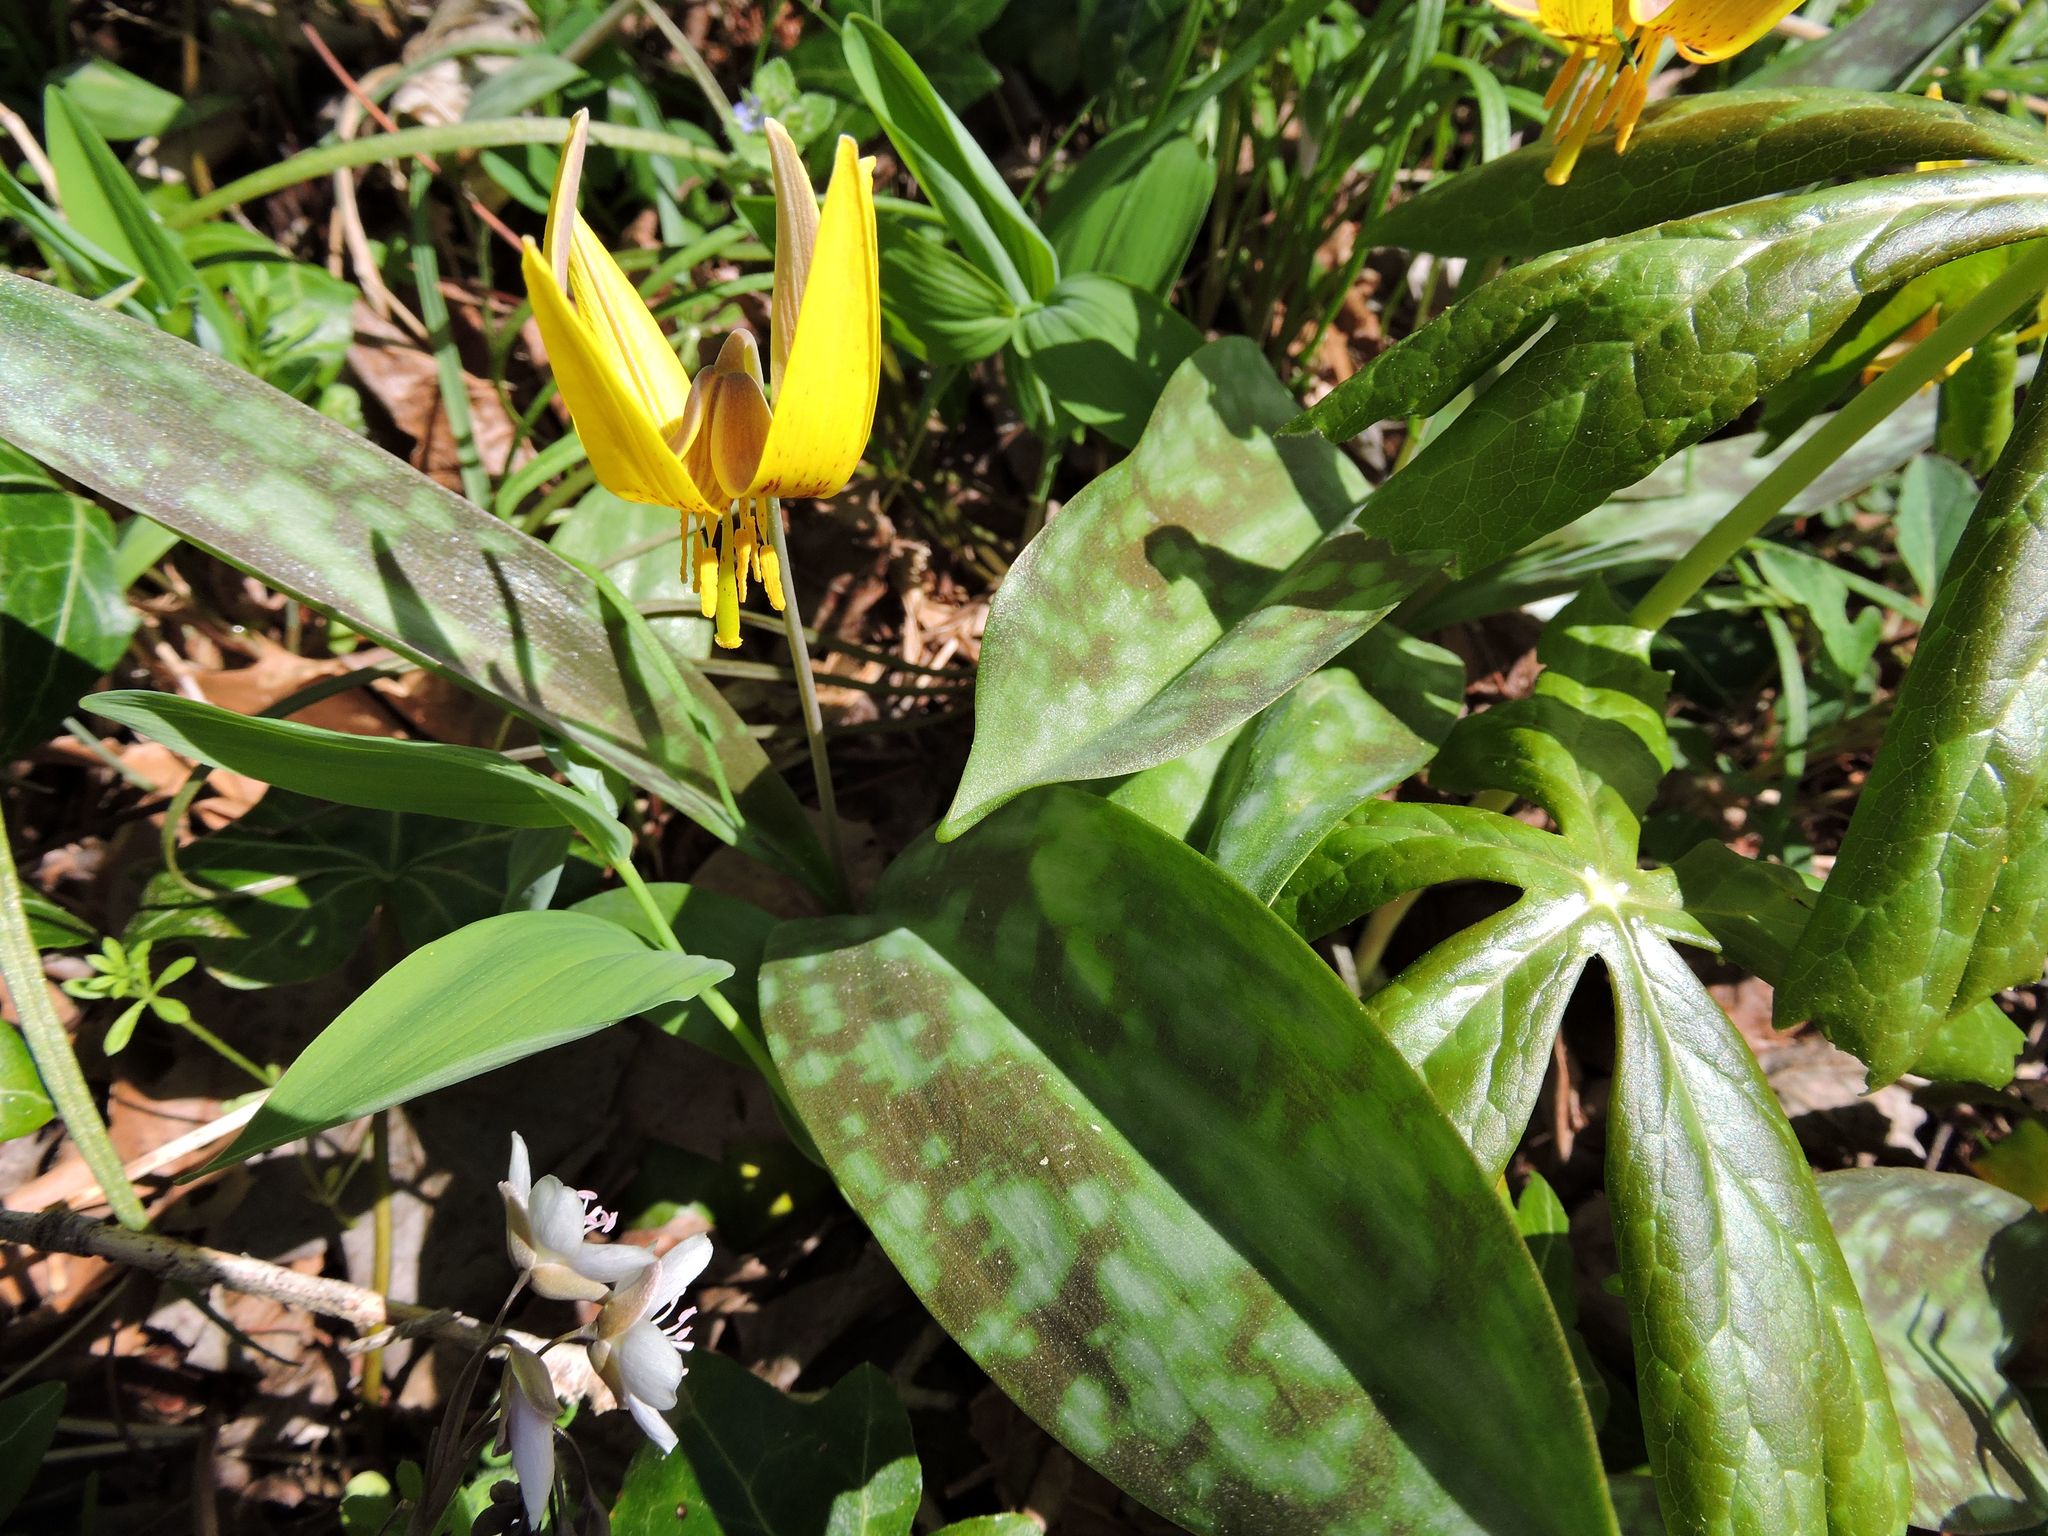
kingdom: Plantae
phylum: Tracheophyta
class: Liliopsida
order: Liliales
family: Liliaceae
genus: Erythronium
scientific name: Erythronium americanum
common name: Yellow adder's-tongue
